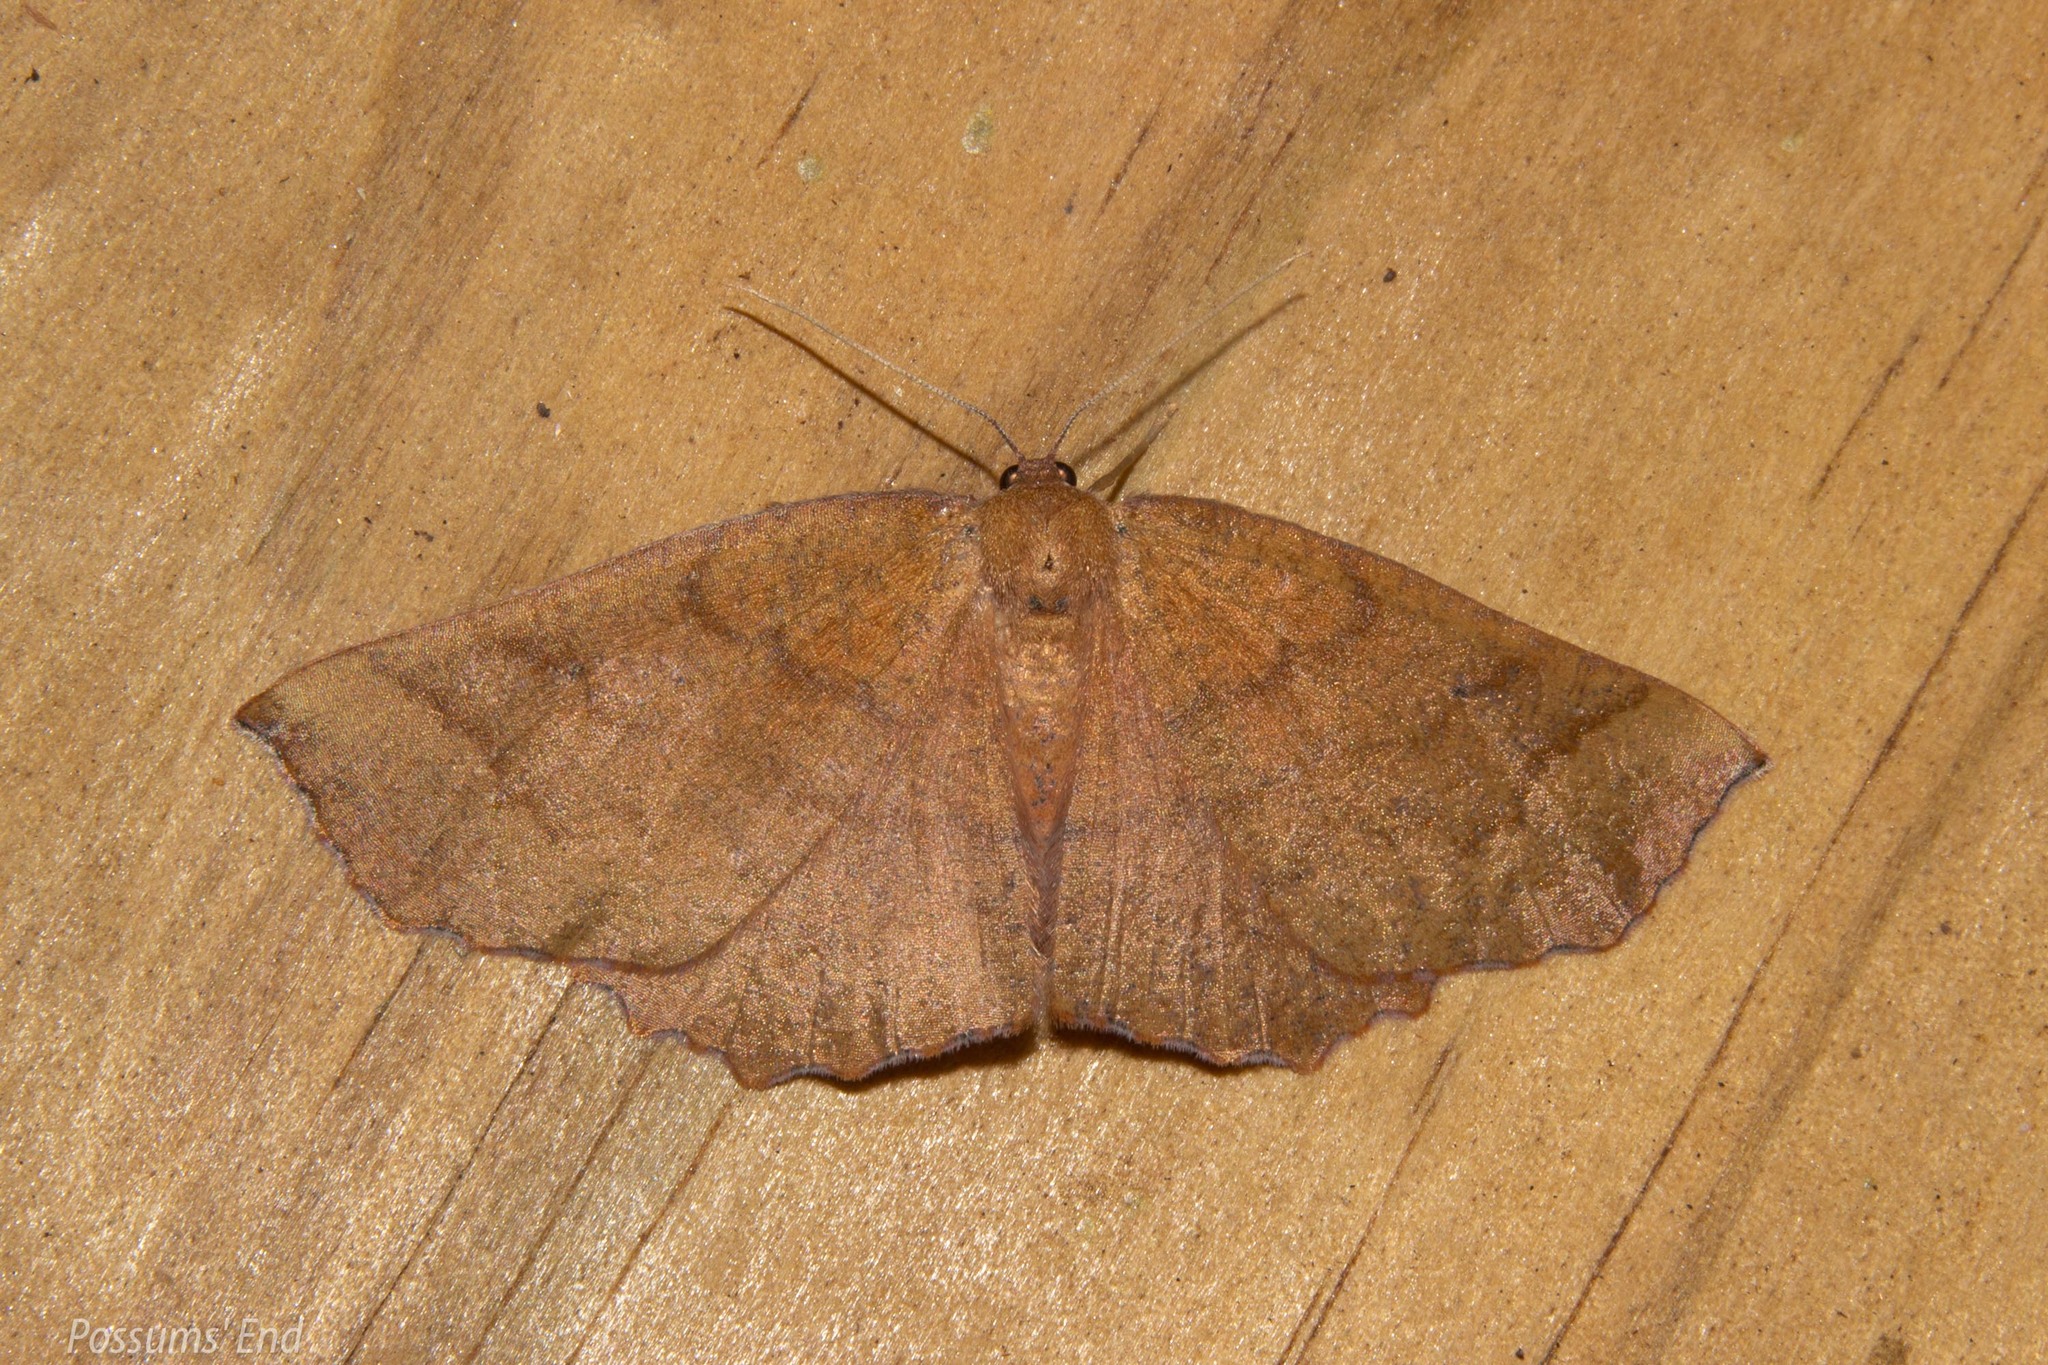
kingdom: Animalia
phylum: Arthropoda
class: Insecta
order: Lepidoptera
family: Geometridae
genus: Xyridacma
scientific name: Xyridacma ustaria
